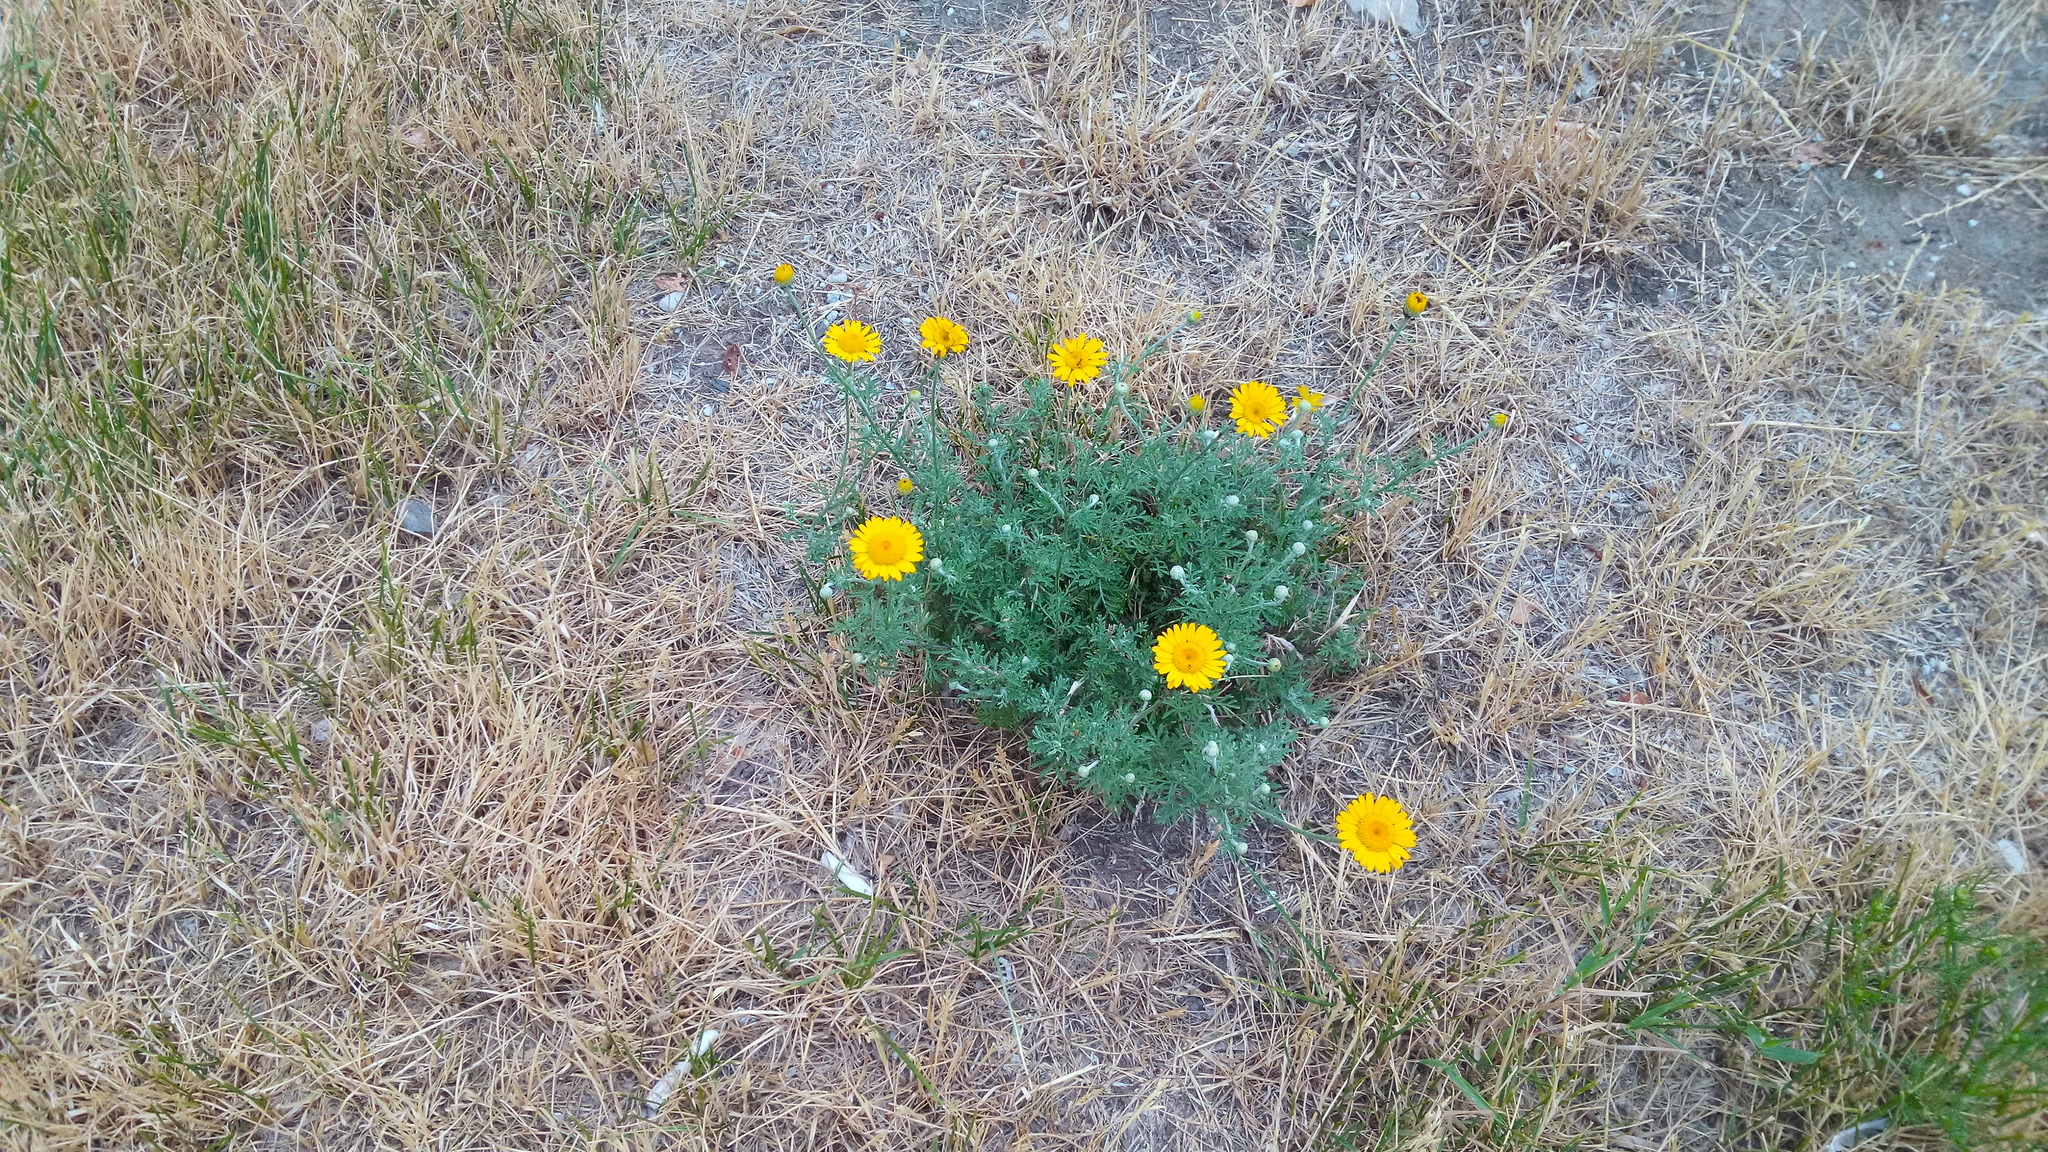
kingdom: Plantae
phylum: Tracheophyta
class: Magnoliopsida
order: Asterales
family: Asteraceae
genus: Cota
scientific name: Cota tinctoria
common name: Golden chamomile
